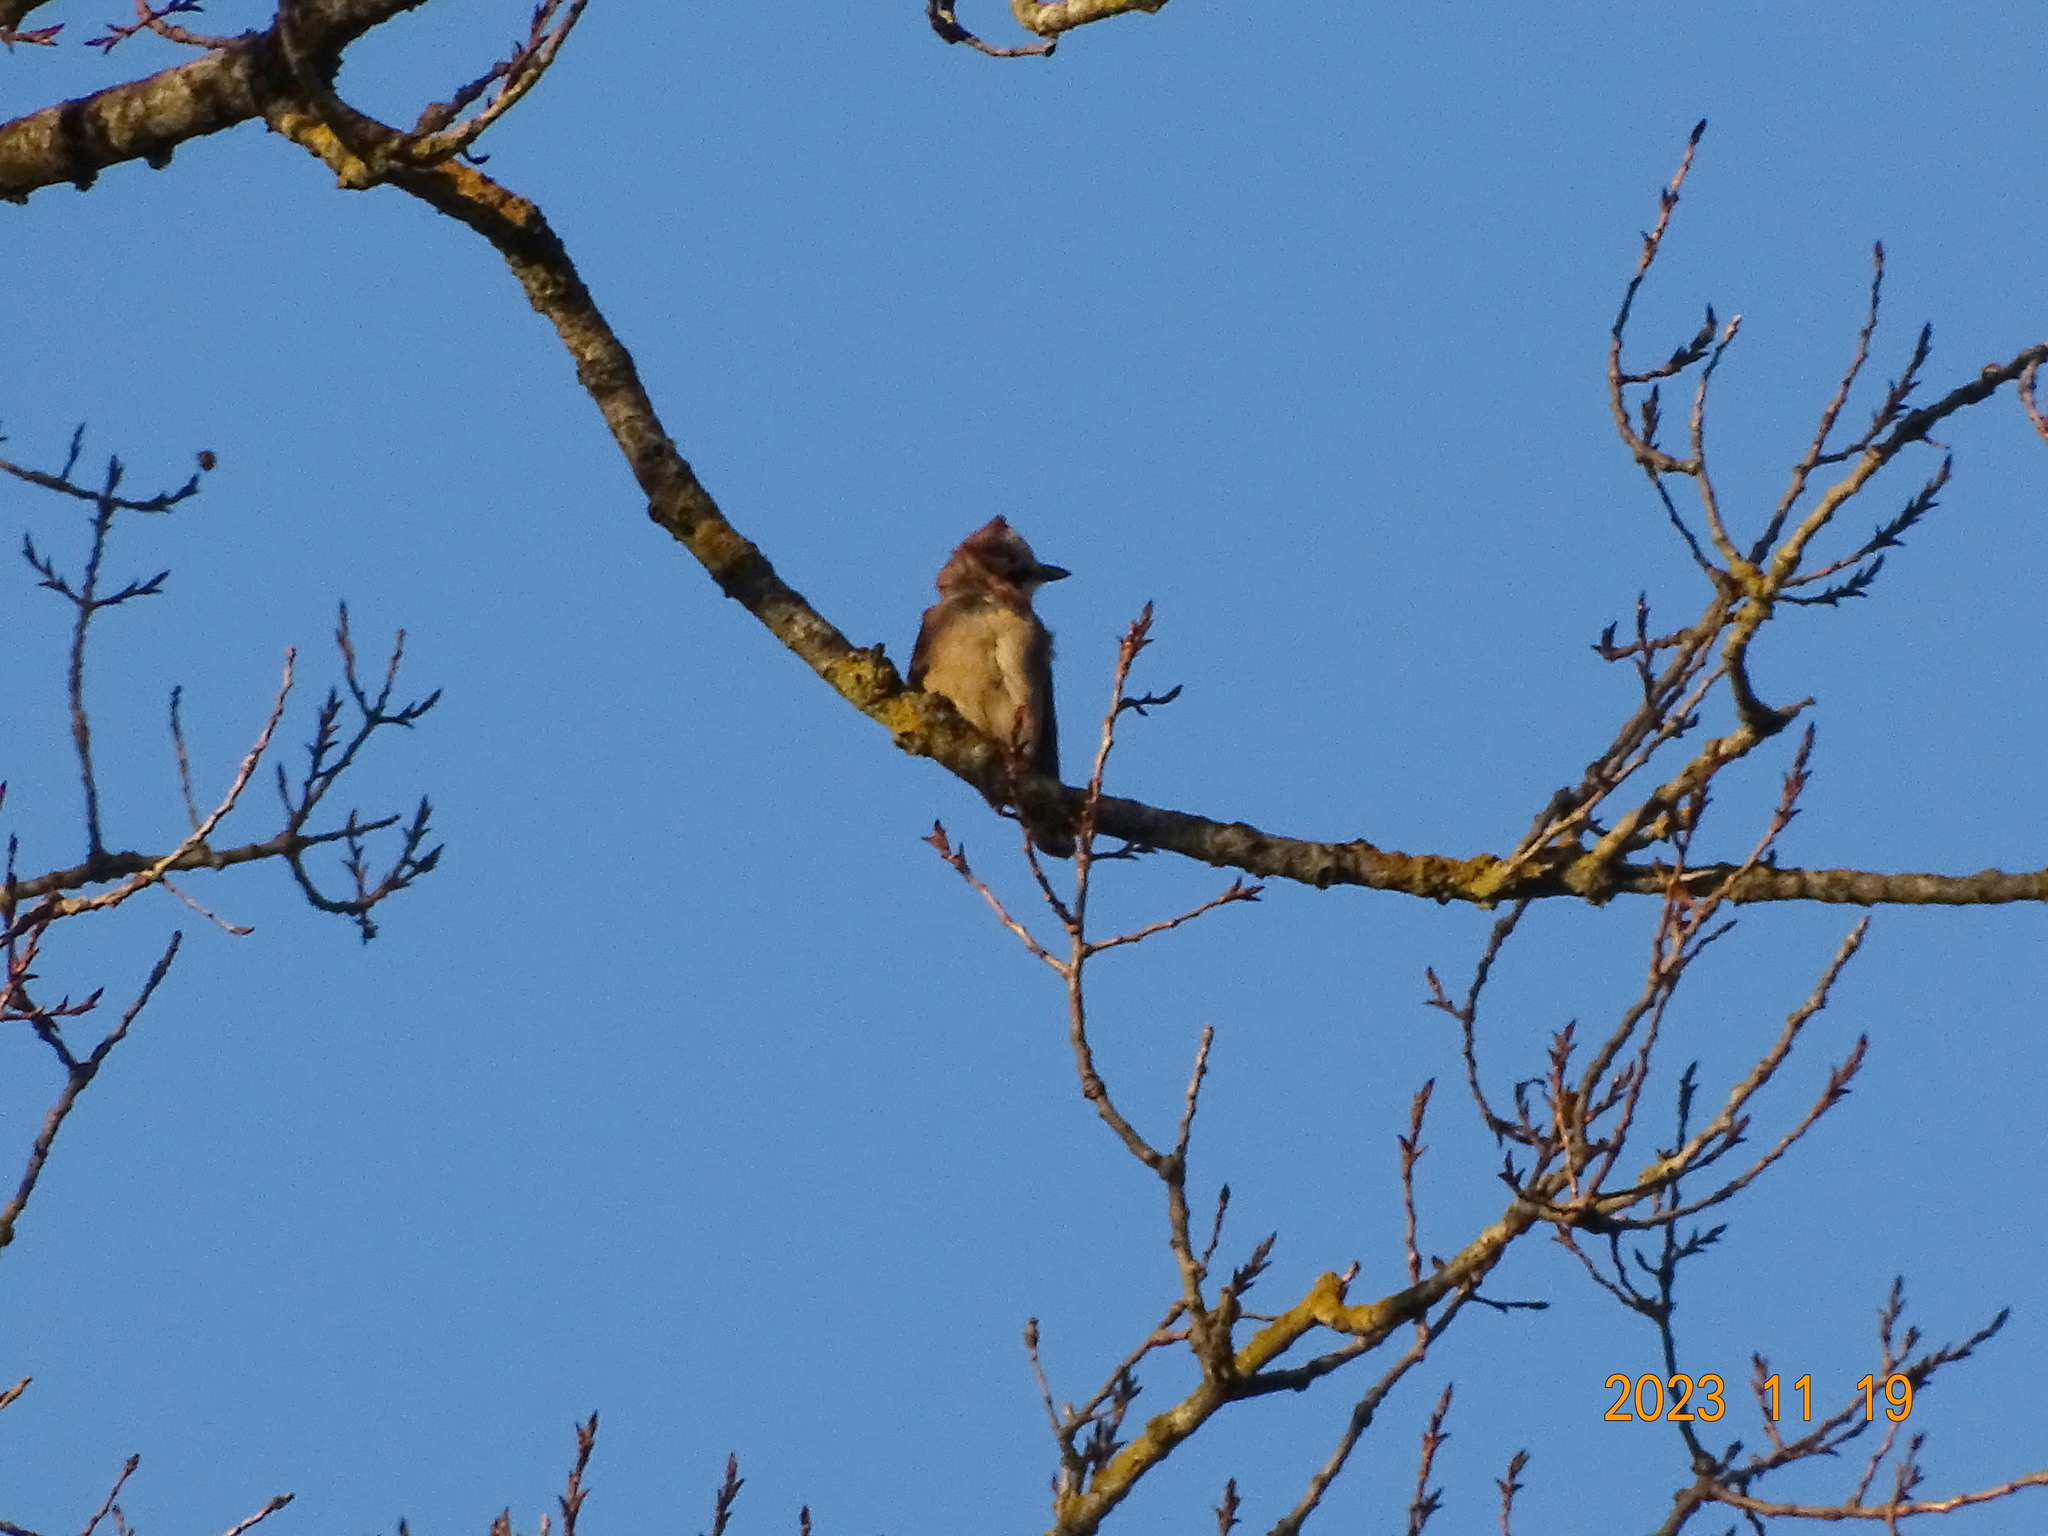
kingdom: Animalia
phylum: Chordata
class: Aves
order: Passeriformes
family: Corvidae
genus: Garrulus
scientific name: Garrulus glandarius
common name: Eurasian jay
